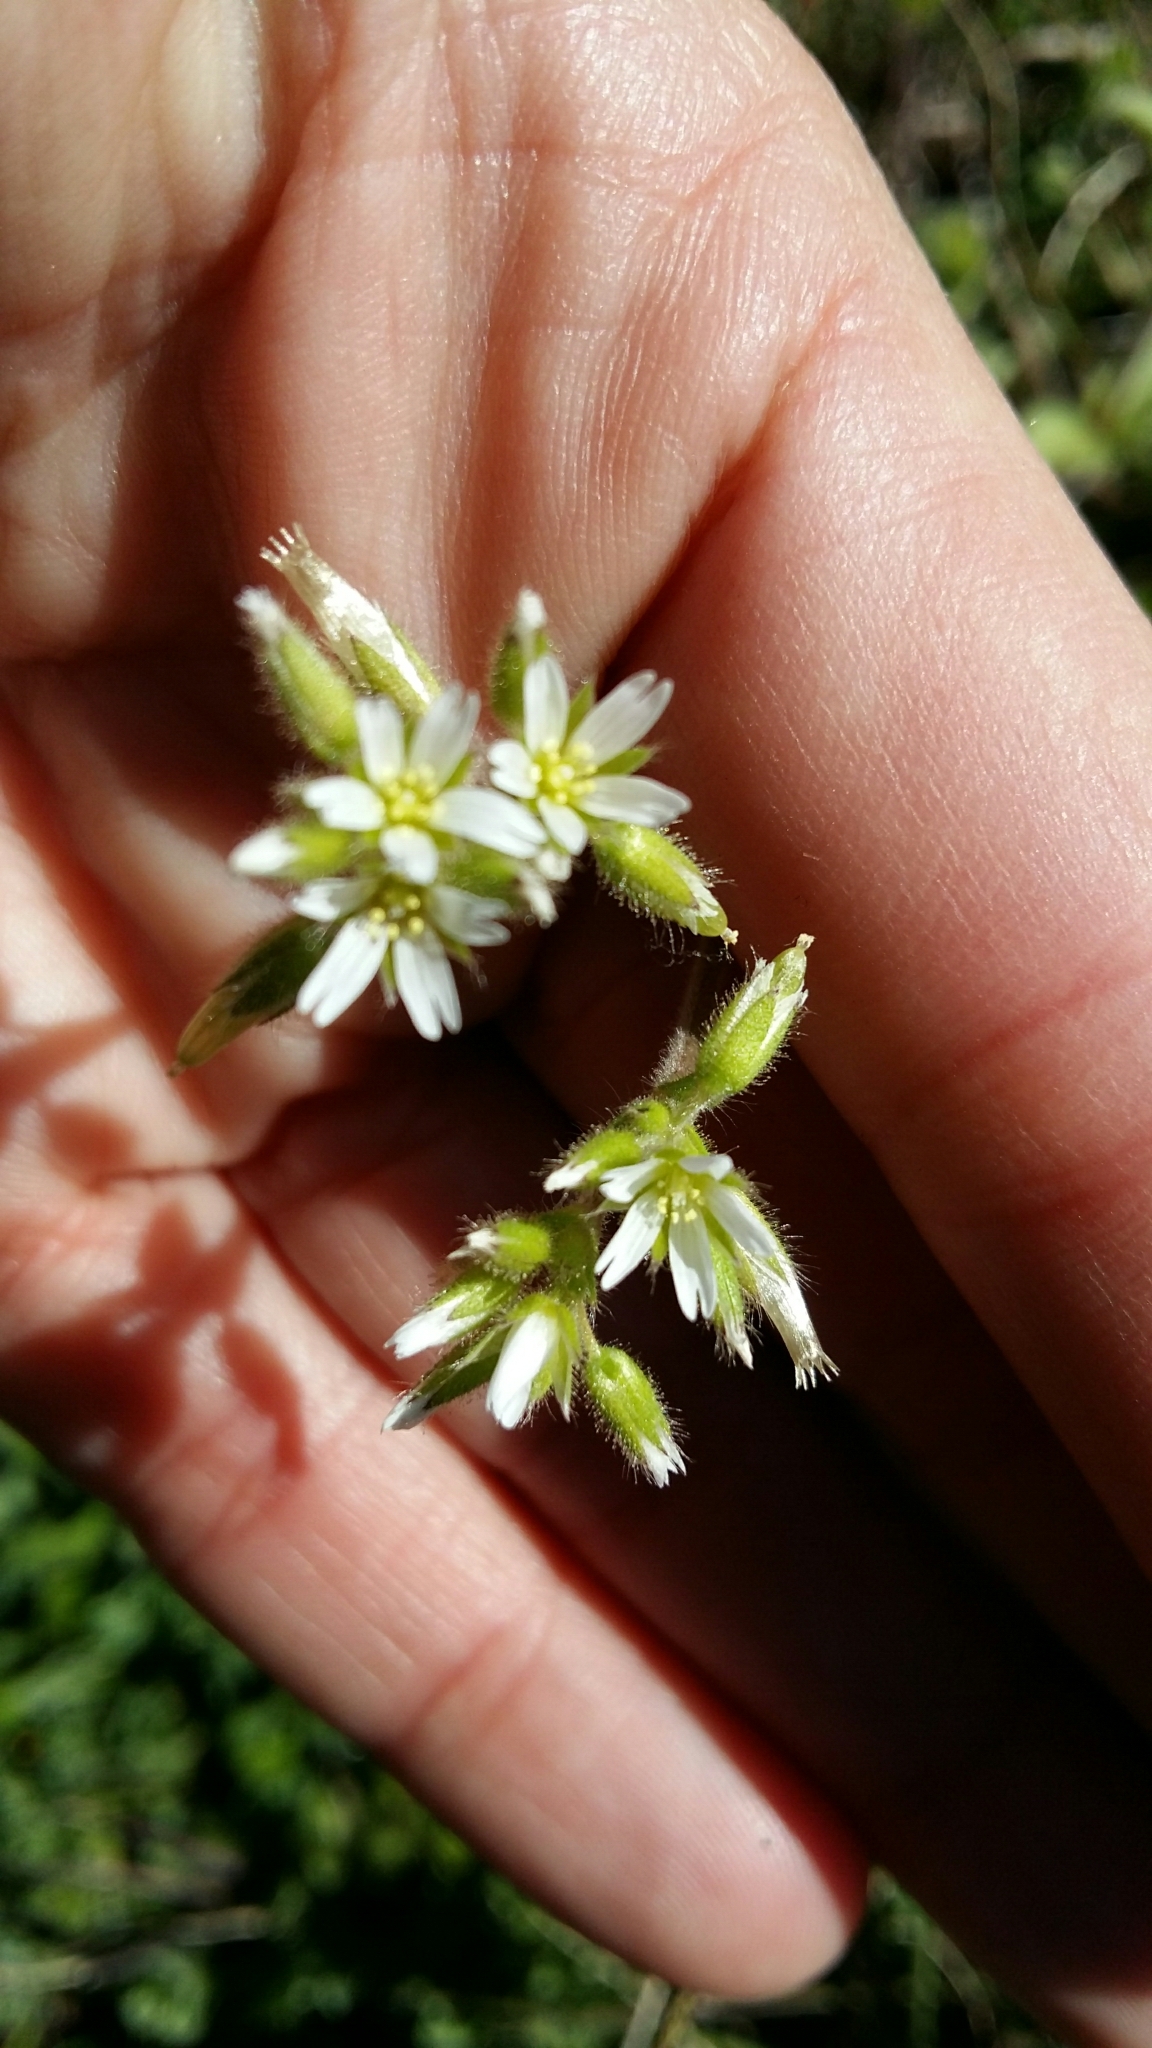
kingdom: Plantae
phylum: Tracheophyta
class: Magnoliopsida
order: Caryophyllales
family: Caryophyllaceae
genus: Cerastium
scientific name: Cerastium capense
